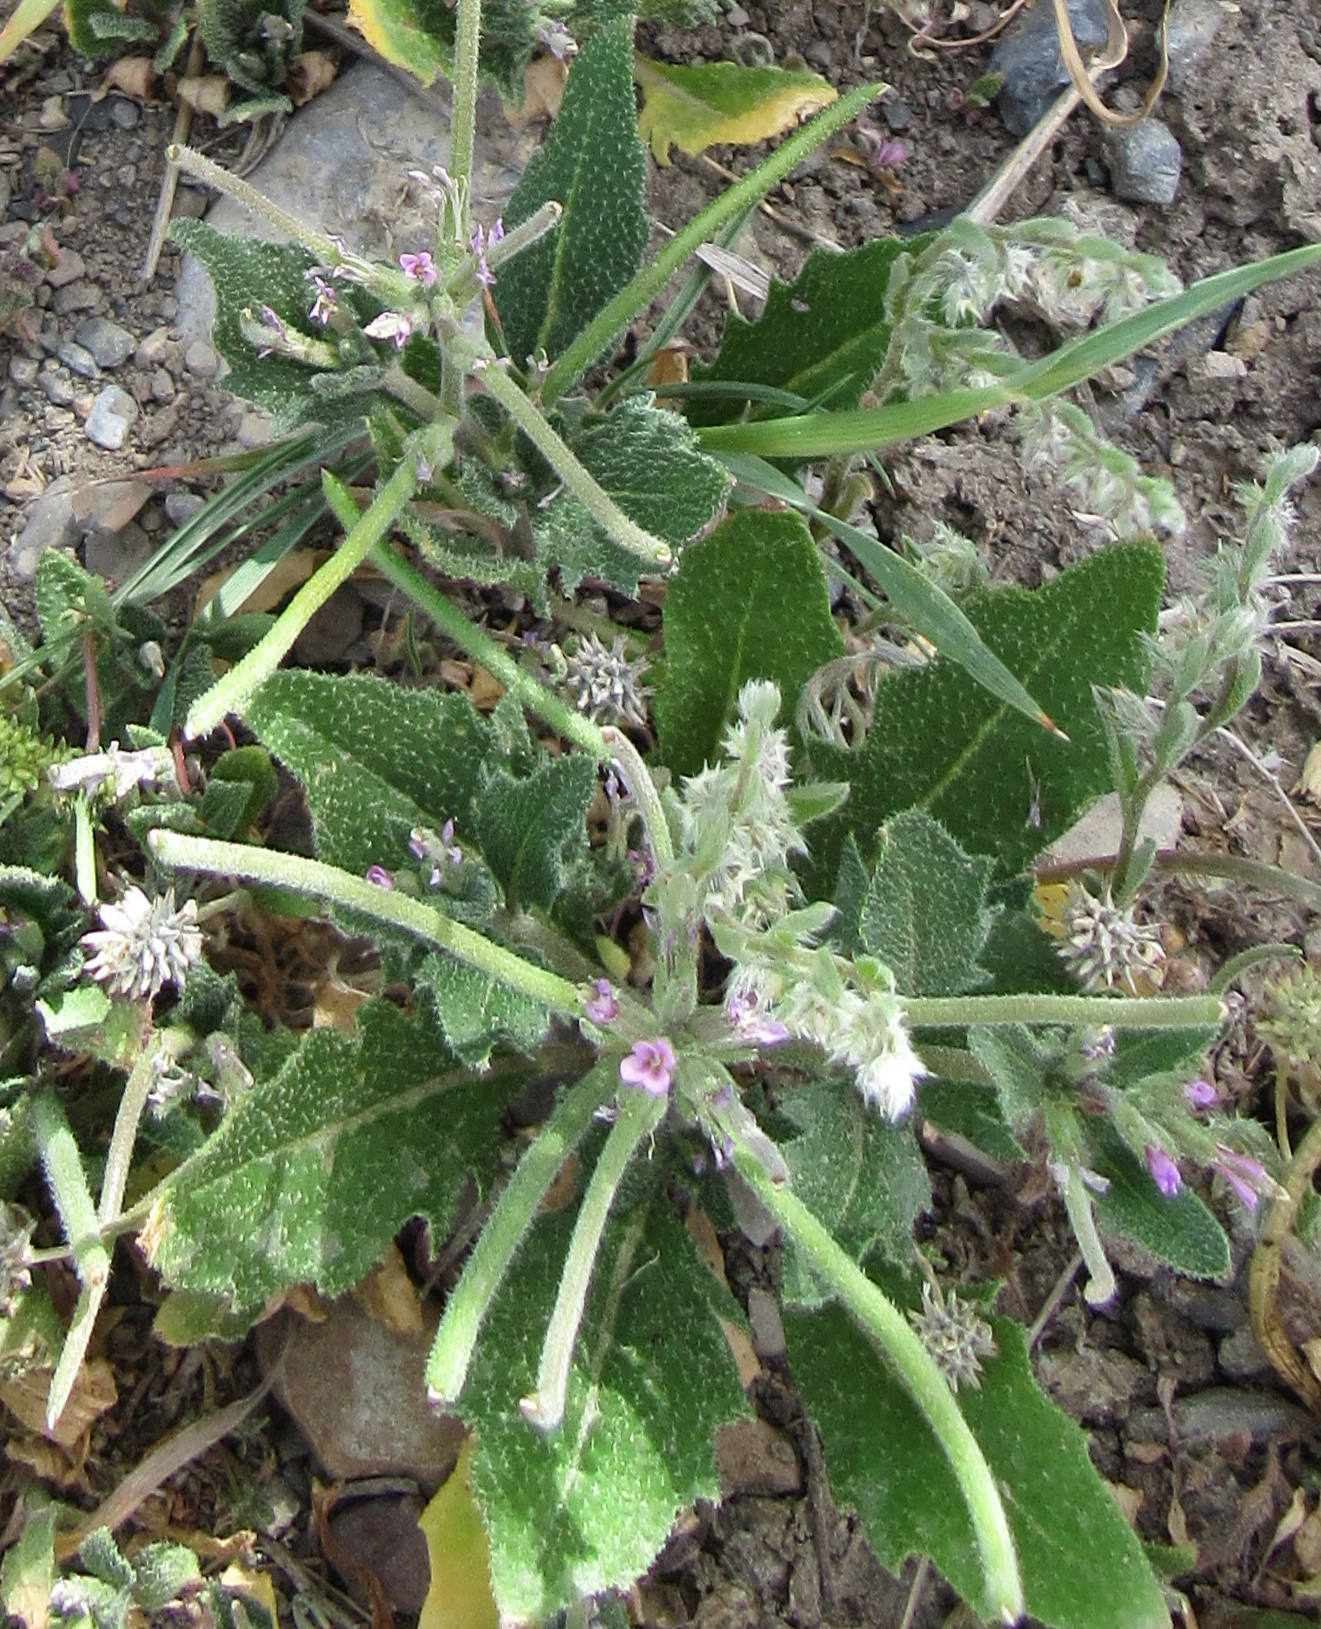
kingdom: Plantae
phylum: Tracheophyta
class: Magnoliopsida
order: Brassicales
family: Brassicaceae
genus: Strigosella
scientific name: Strigosella africana
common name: African mustard
